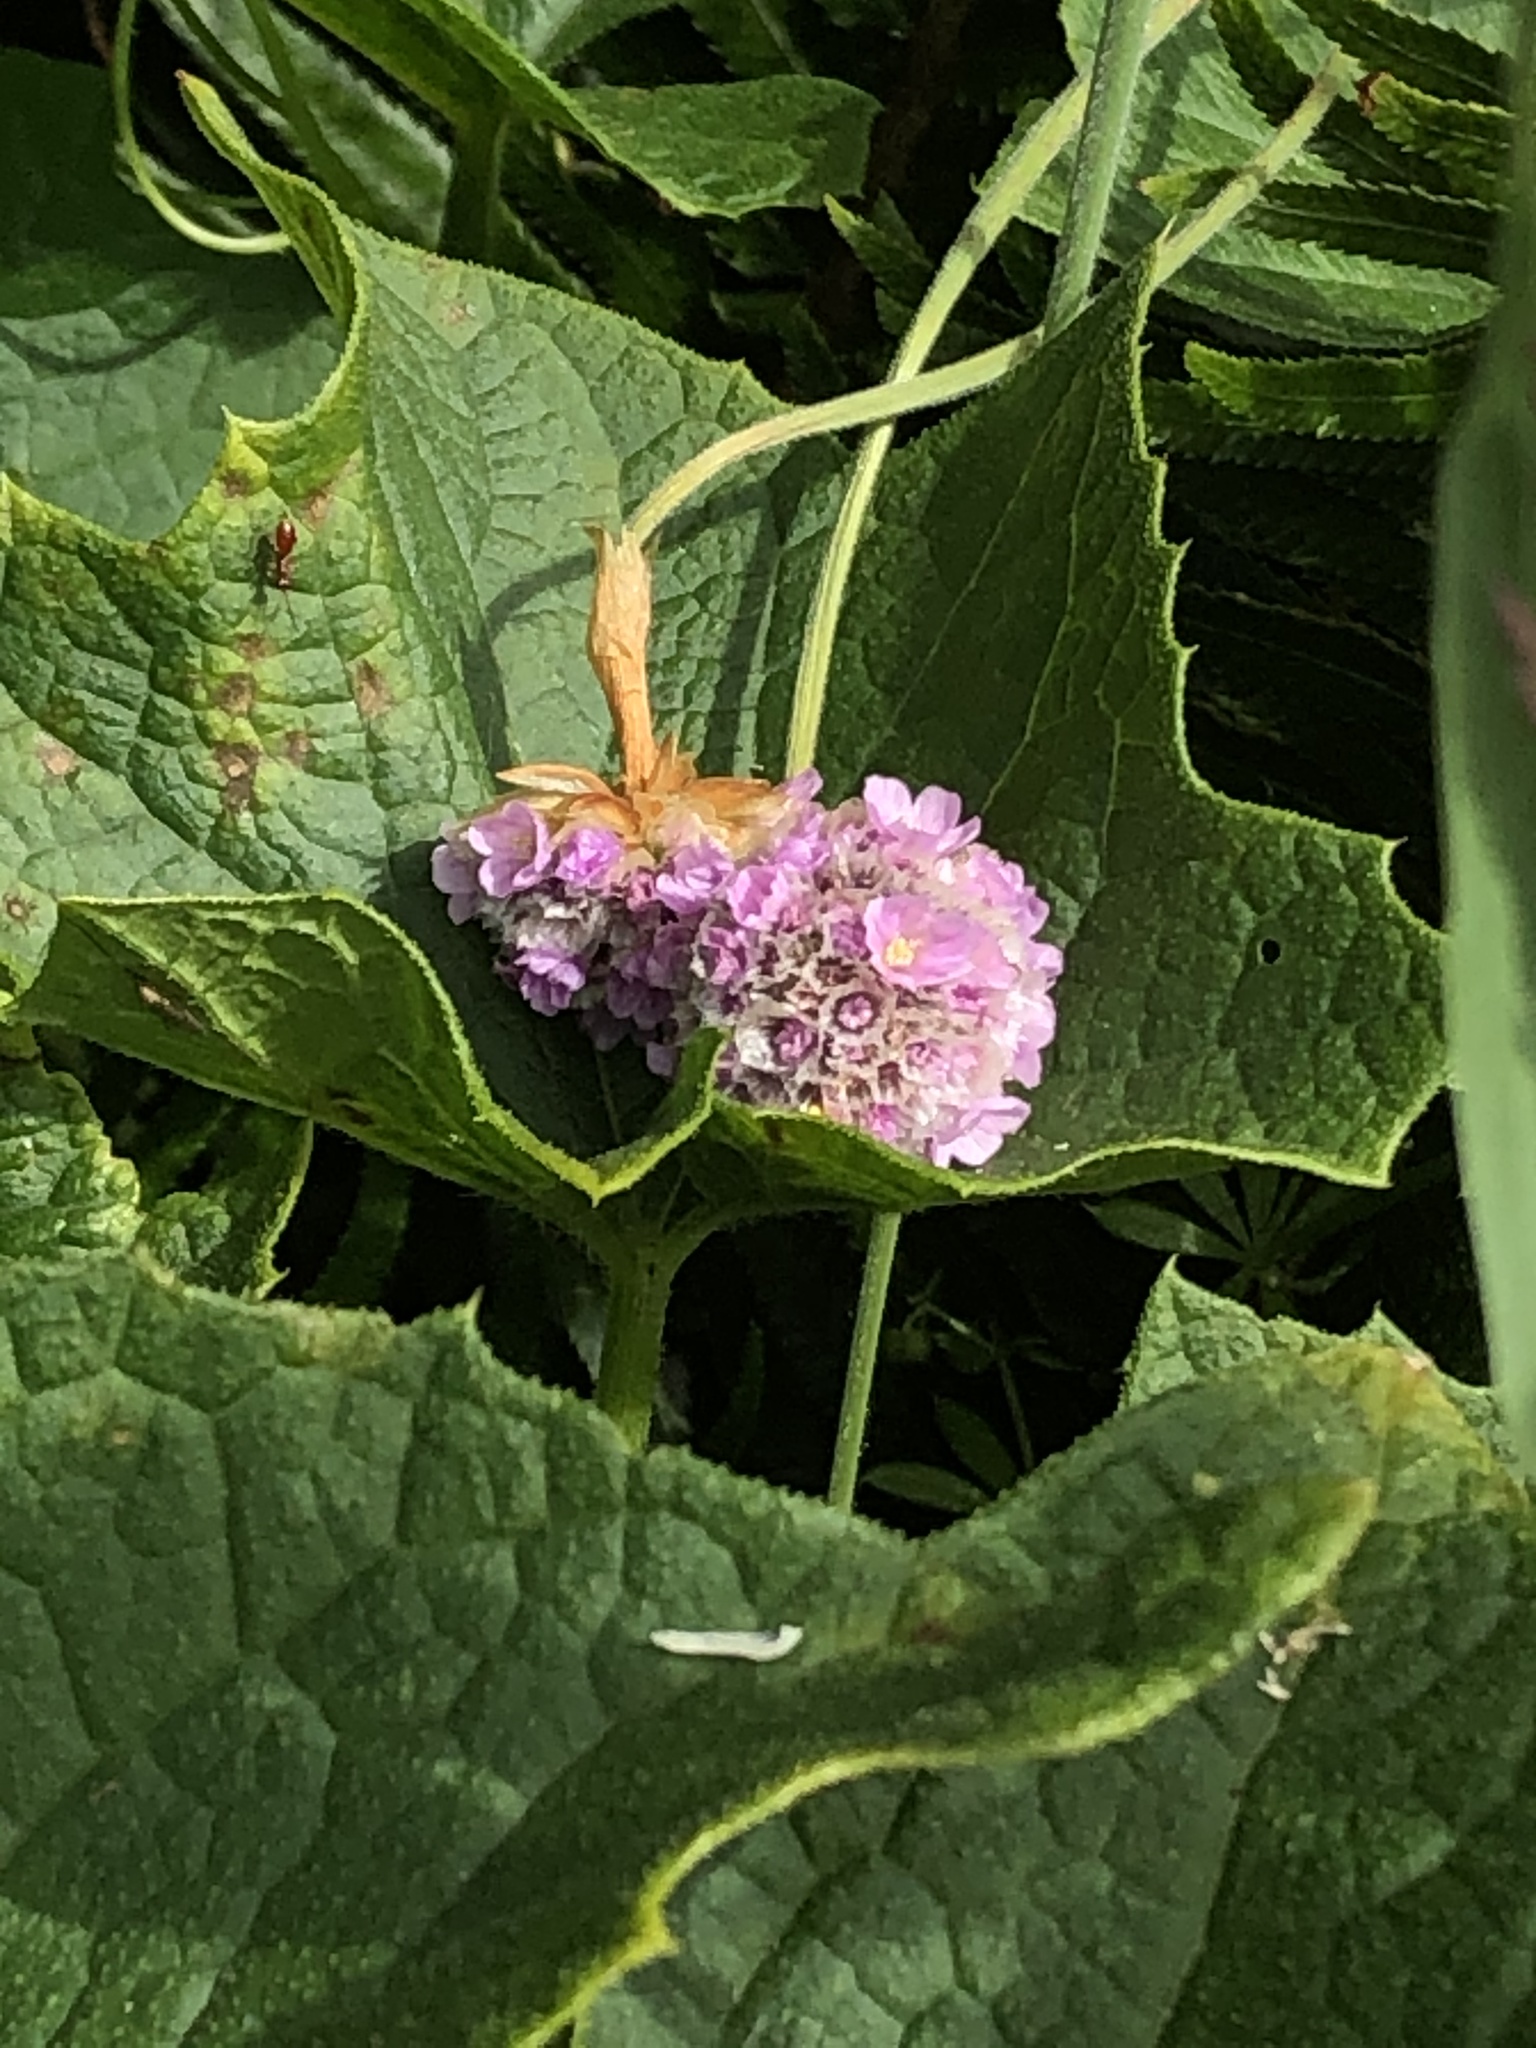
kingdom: Plantae
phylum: Tracheophyta
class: Magnoliopsida
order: Caryophyllales
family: Plumbaginaceae
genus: Armeria
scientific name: Armeria maritima
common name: Thrift
